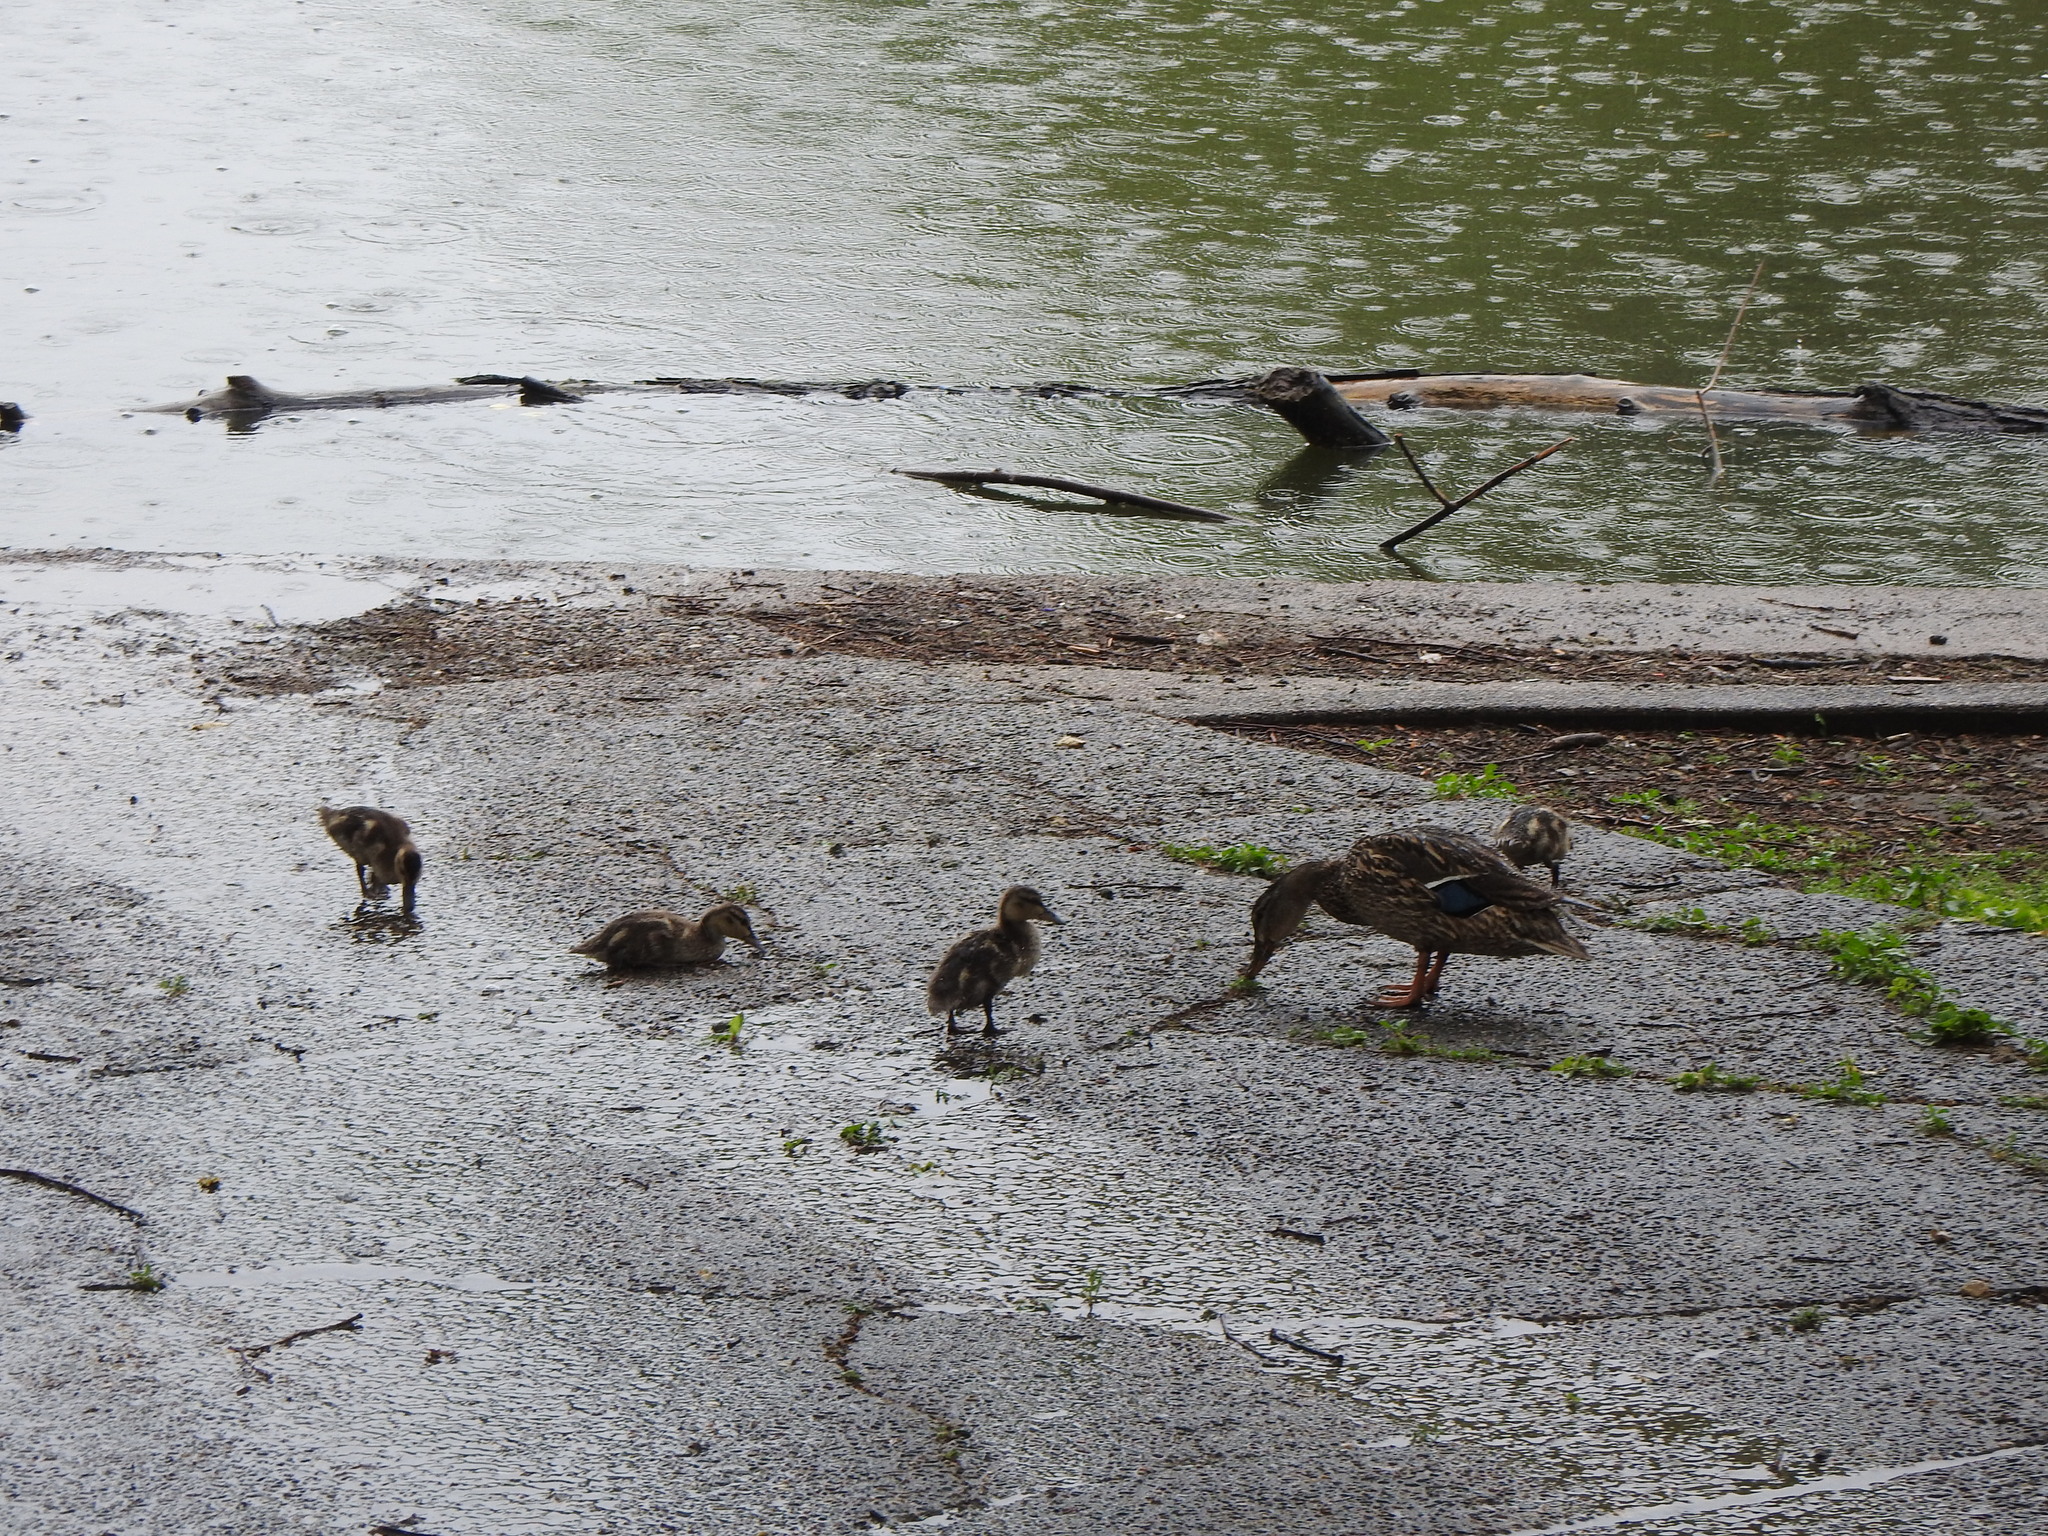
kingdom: Animalia
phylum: Chordata
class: Aves
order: Anseriformes
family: Anatidae
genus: Anas
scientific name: Anas platyrhynchos
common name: Mallard
